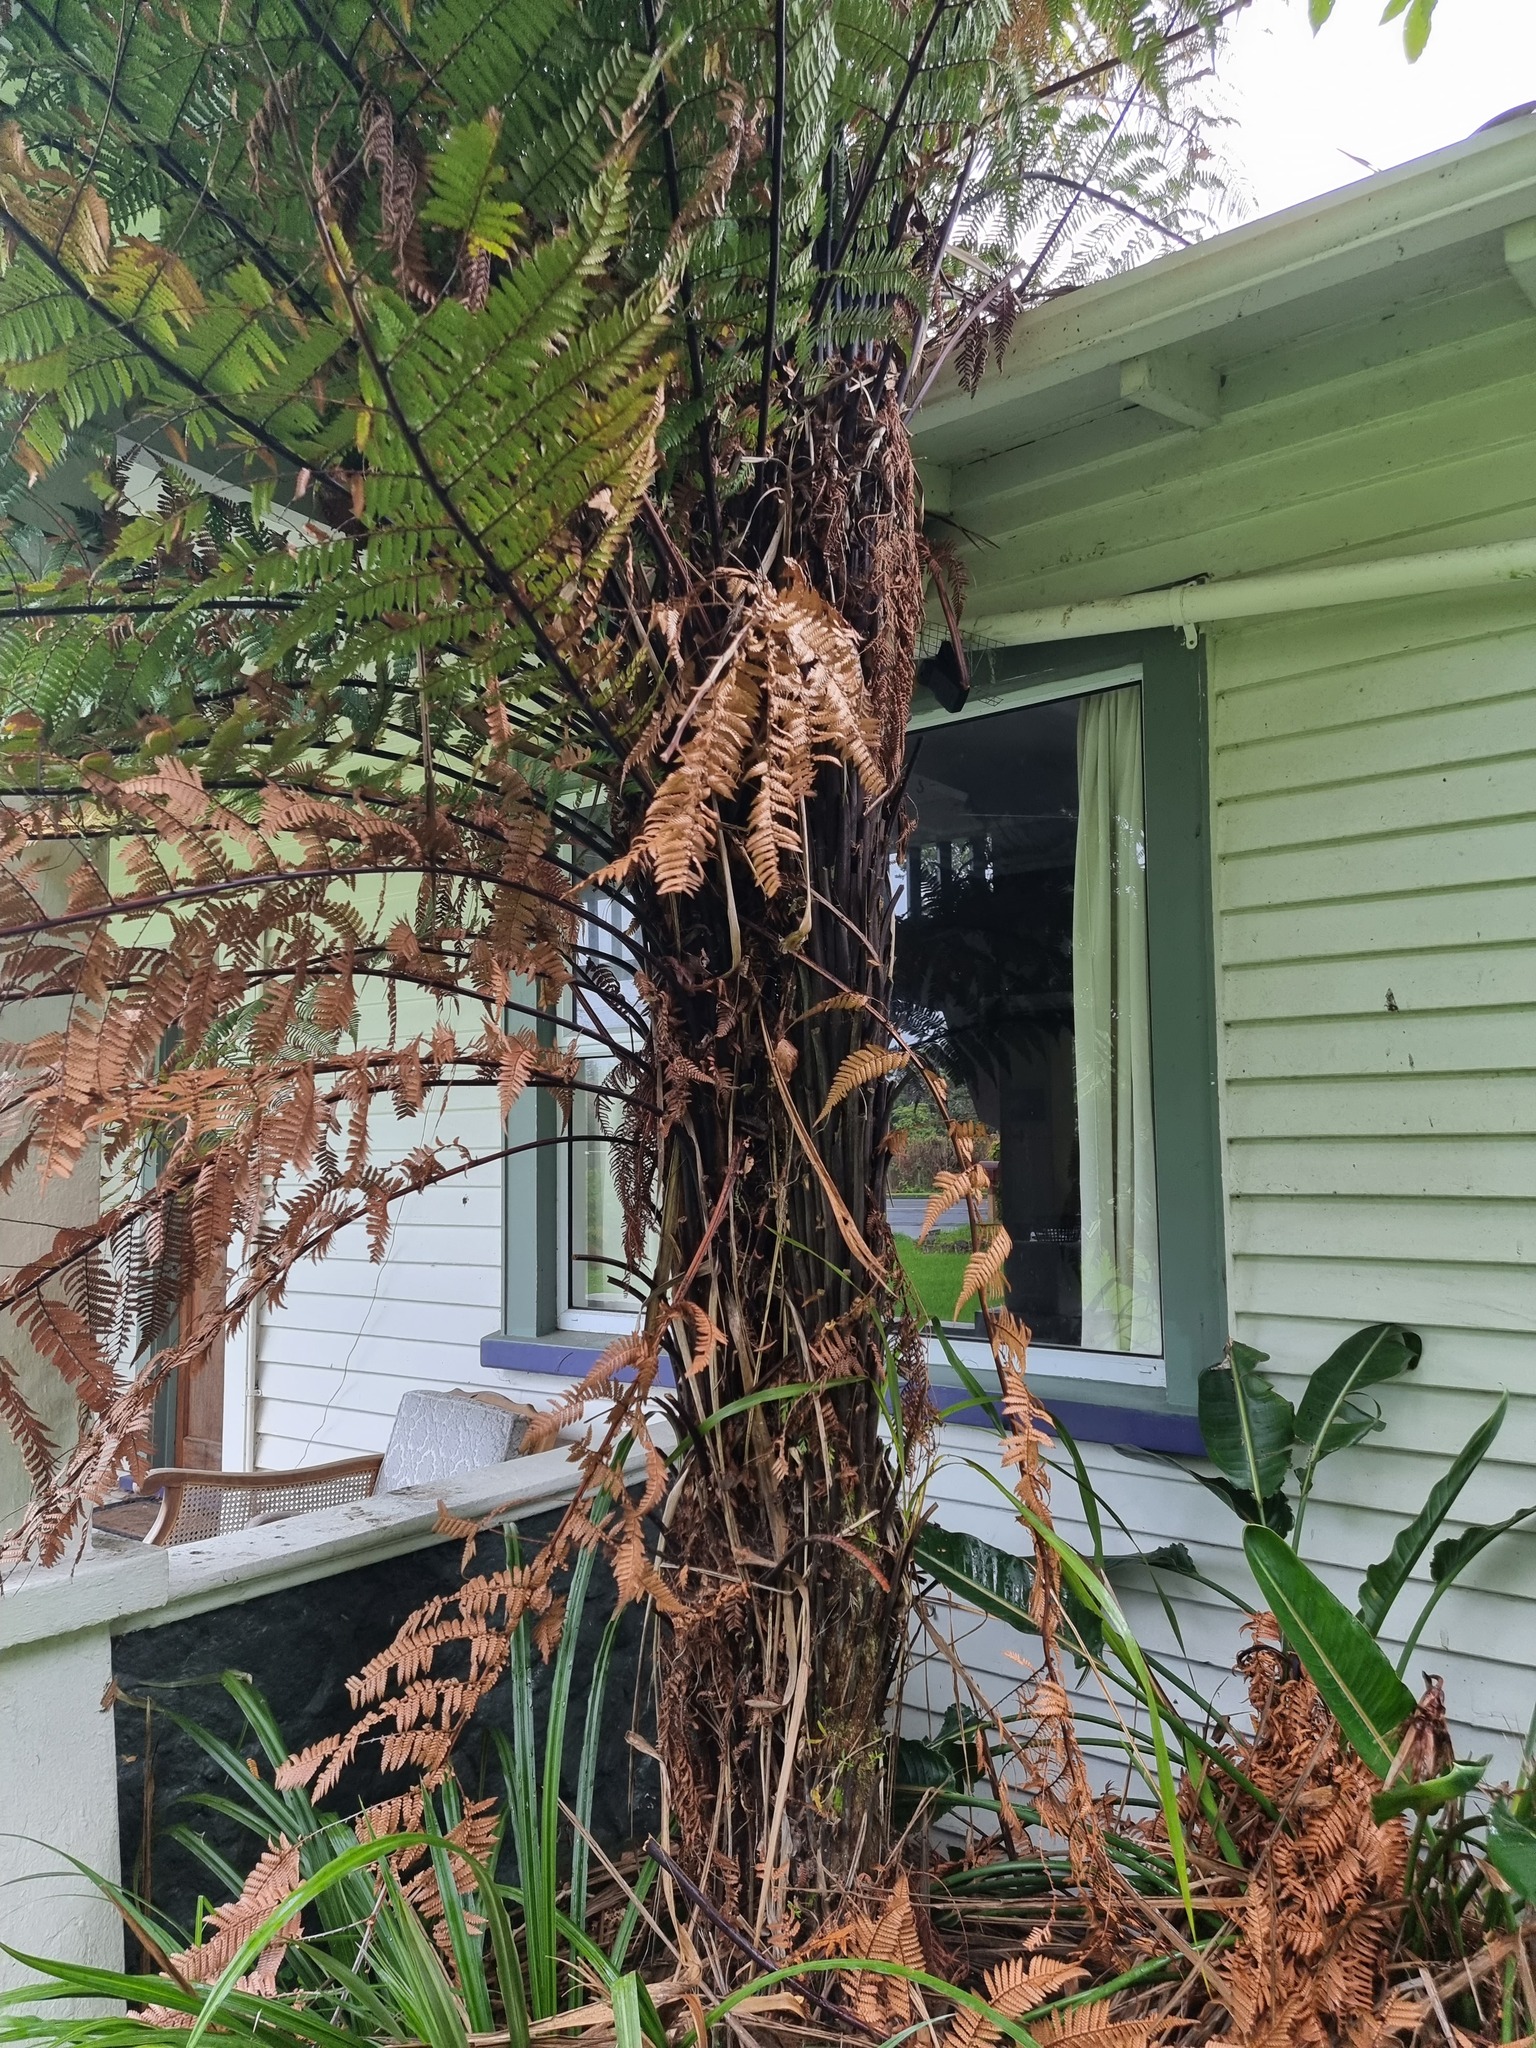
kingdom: Plantae
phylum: Tracheophyta
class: Polypodiopsida
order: Cyatheales
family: Dicksoniaceae
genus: Dicksonia
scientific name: Dicksonia squarrosa
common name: Hard treefern
